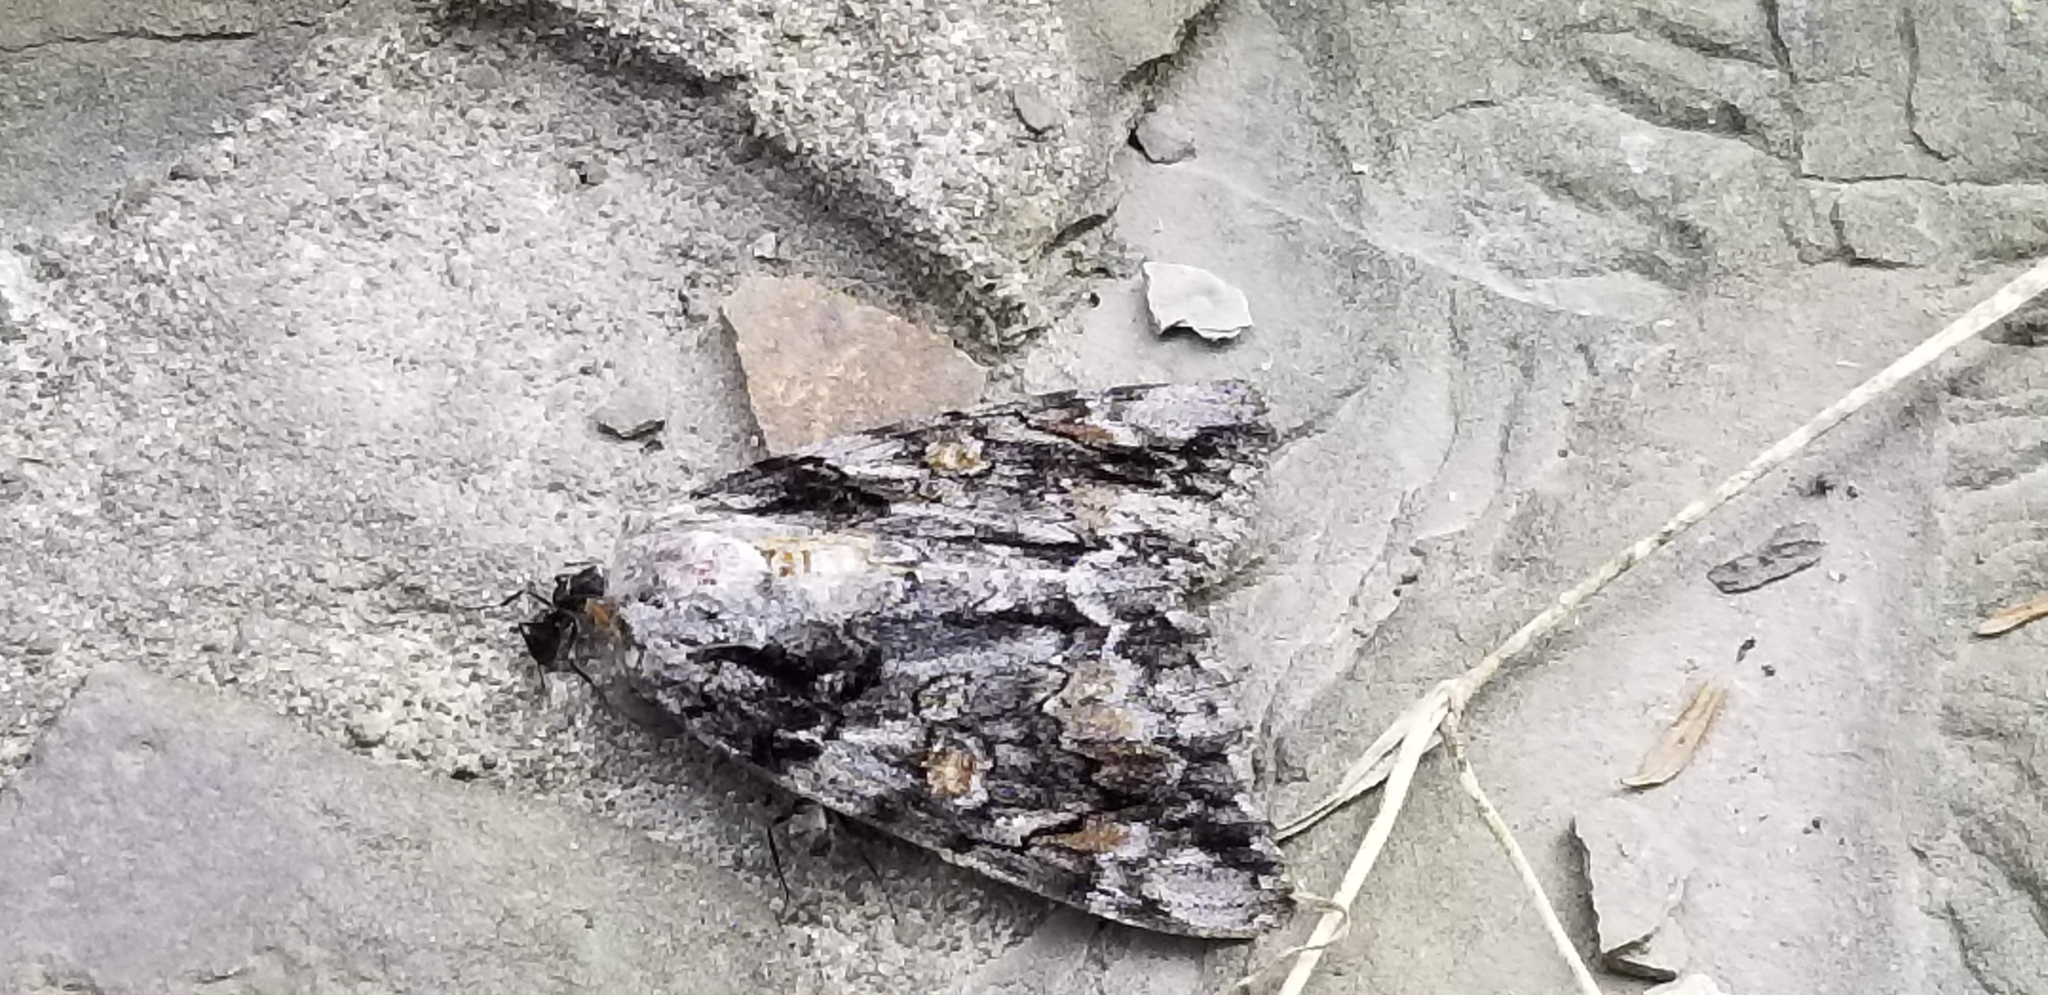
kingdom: Animalia
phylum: Arthropoda
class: Insecta
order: Lepidoptera
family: Erebidae
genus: Catocala
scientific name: Catocala neogama
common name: Bride underwing
